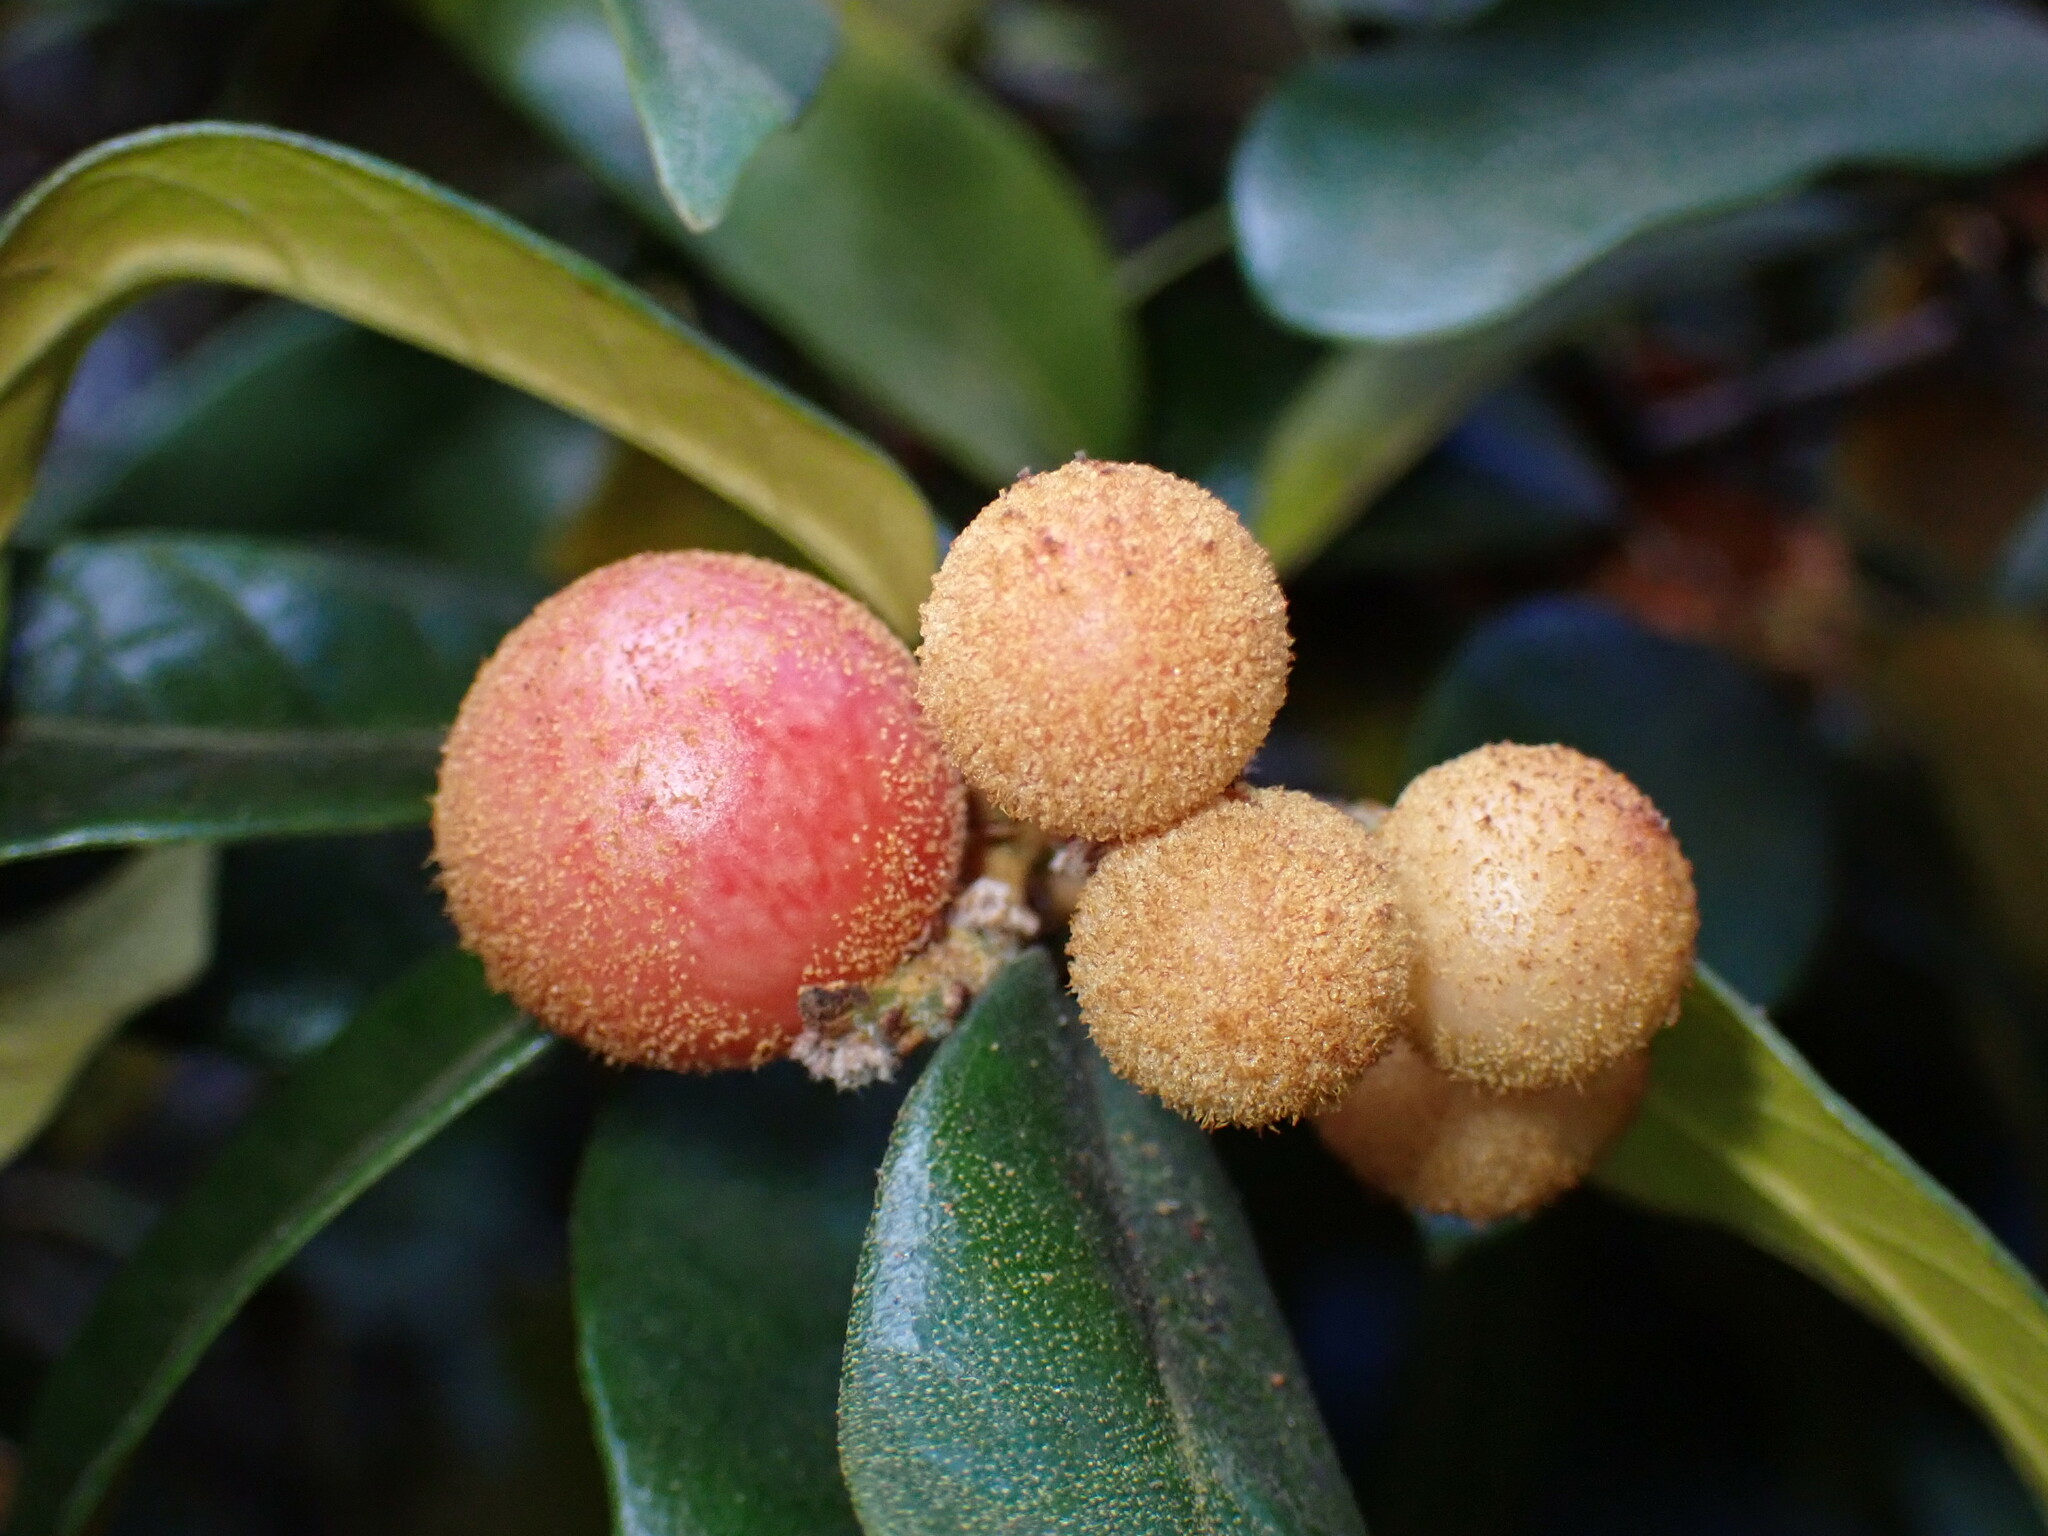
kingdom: Animalia
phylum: Arthropoda
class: Insecta
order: Hymenoptera
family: Cynipidae
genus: Synergus
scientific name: Synergus castanopsidis
